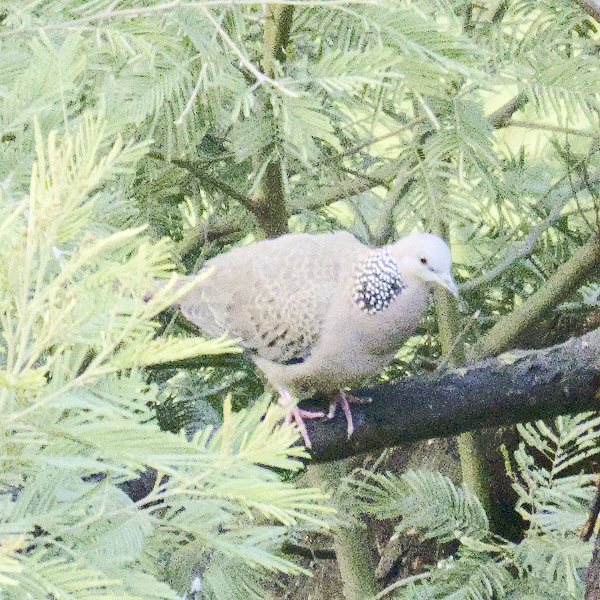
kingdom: Animalia
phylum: Chordata
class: Aves
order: Columbiformes
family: Columbidae
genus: Spilopelia
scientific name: Spilopelia chinensis
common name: Spotted dove
